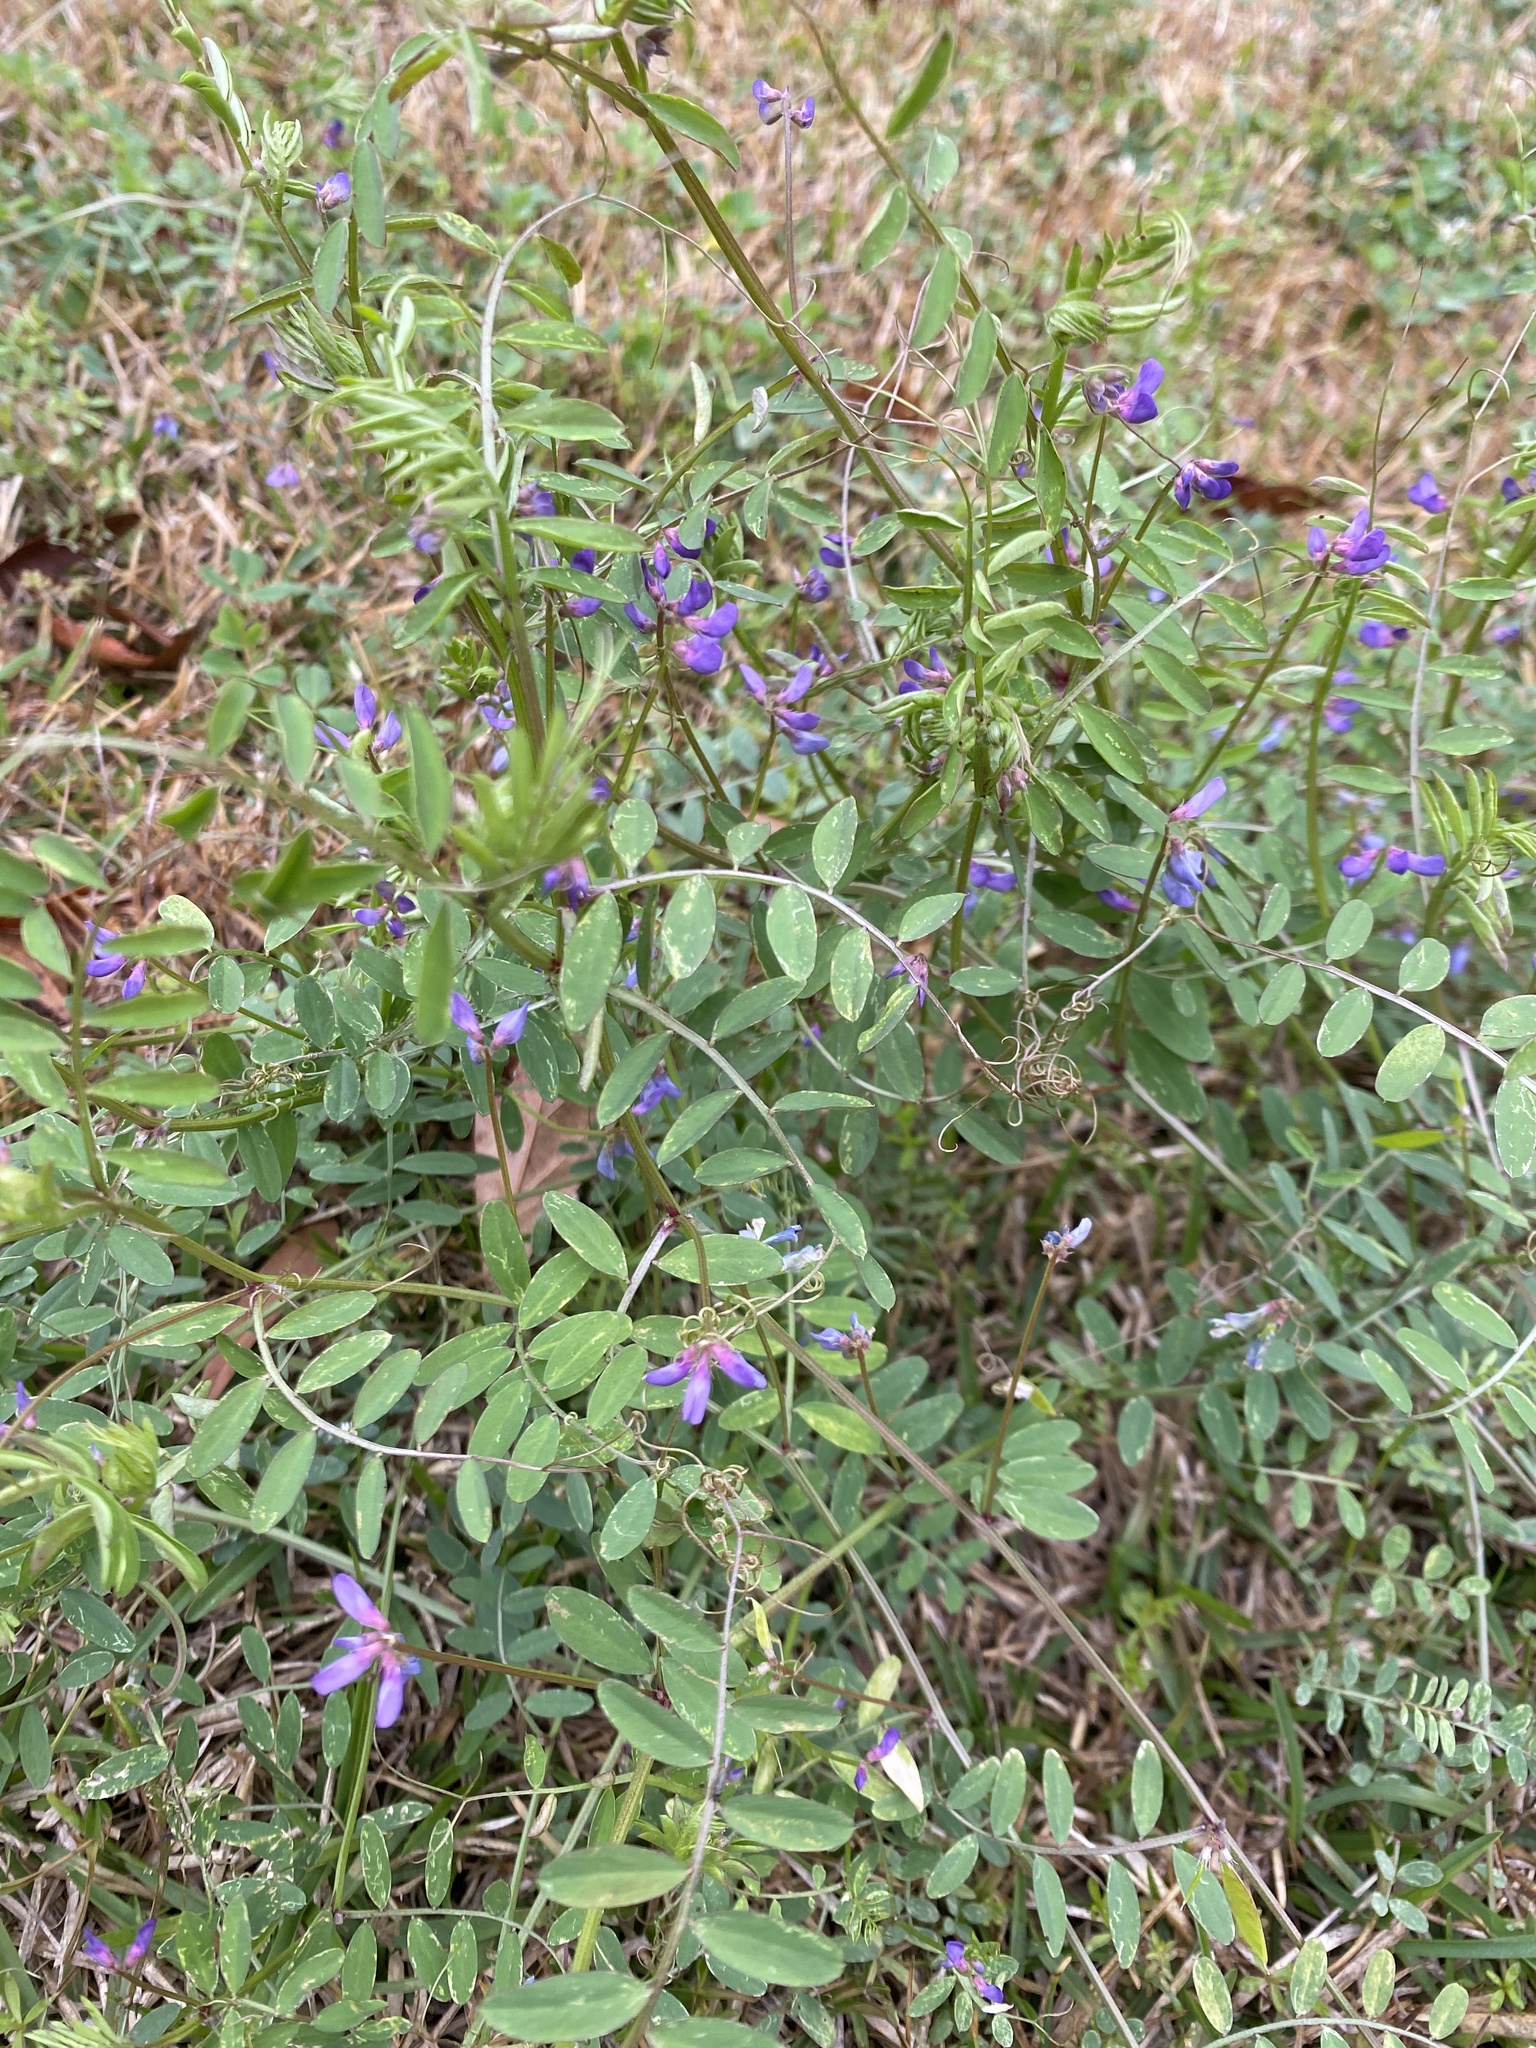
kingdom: Plantae
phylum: Tracheophyta
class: Magnoliopsida
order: Fabales
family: Fabaceae
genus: Vicia
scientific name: Vicia ludoviciana
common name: Louisiana vetch
